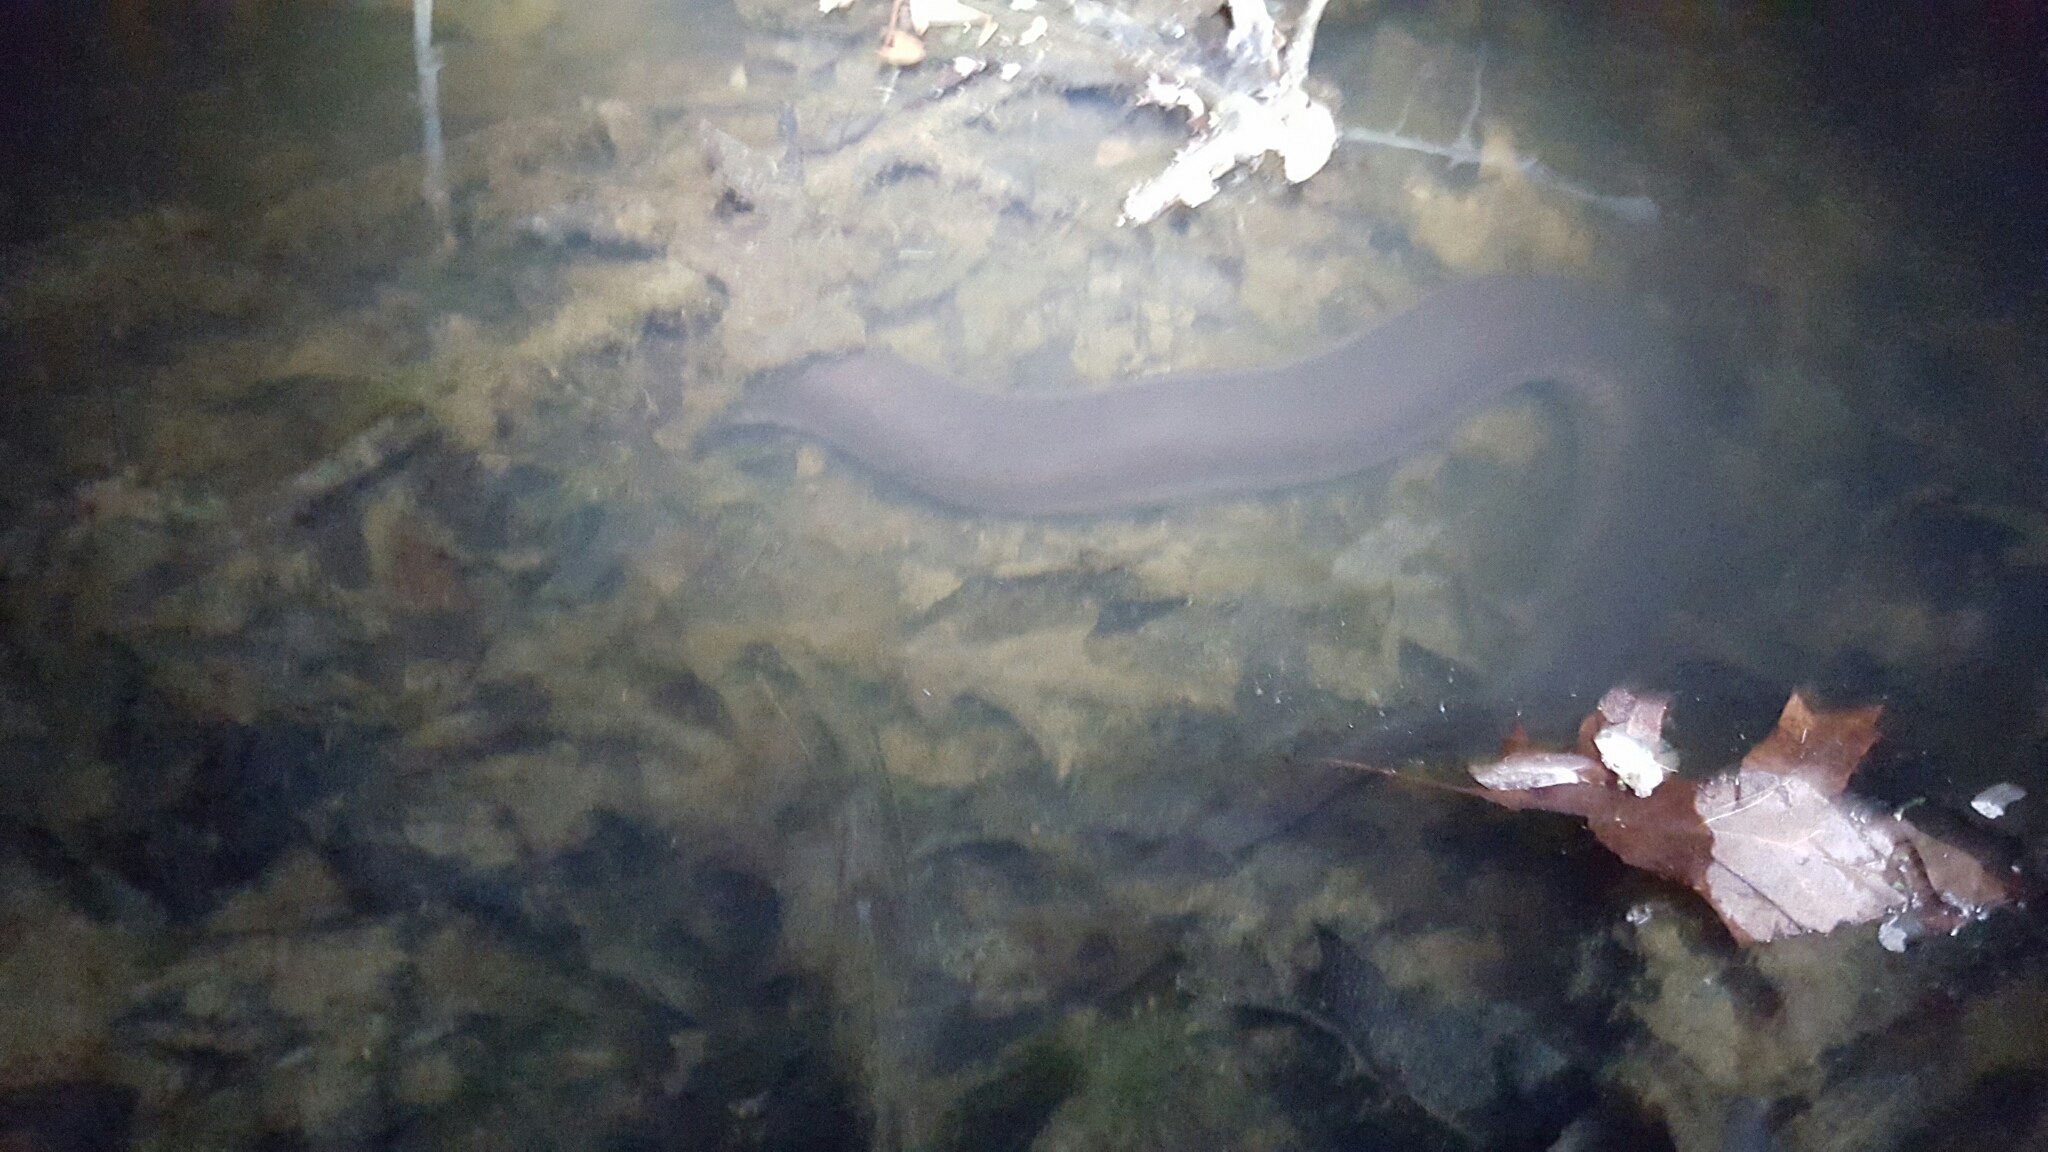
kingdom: Animalia
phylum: Chordata
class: Amphibia
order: Caudata
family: Amphiumidae
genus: Amphiuma
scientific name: Amphiuma tridactylum
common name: Three-toed amphiuma
